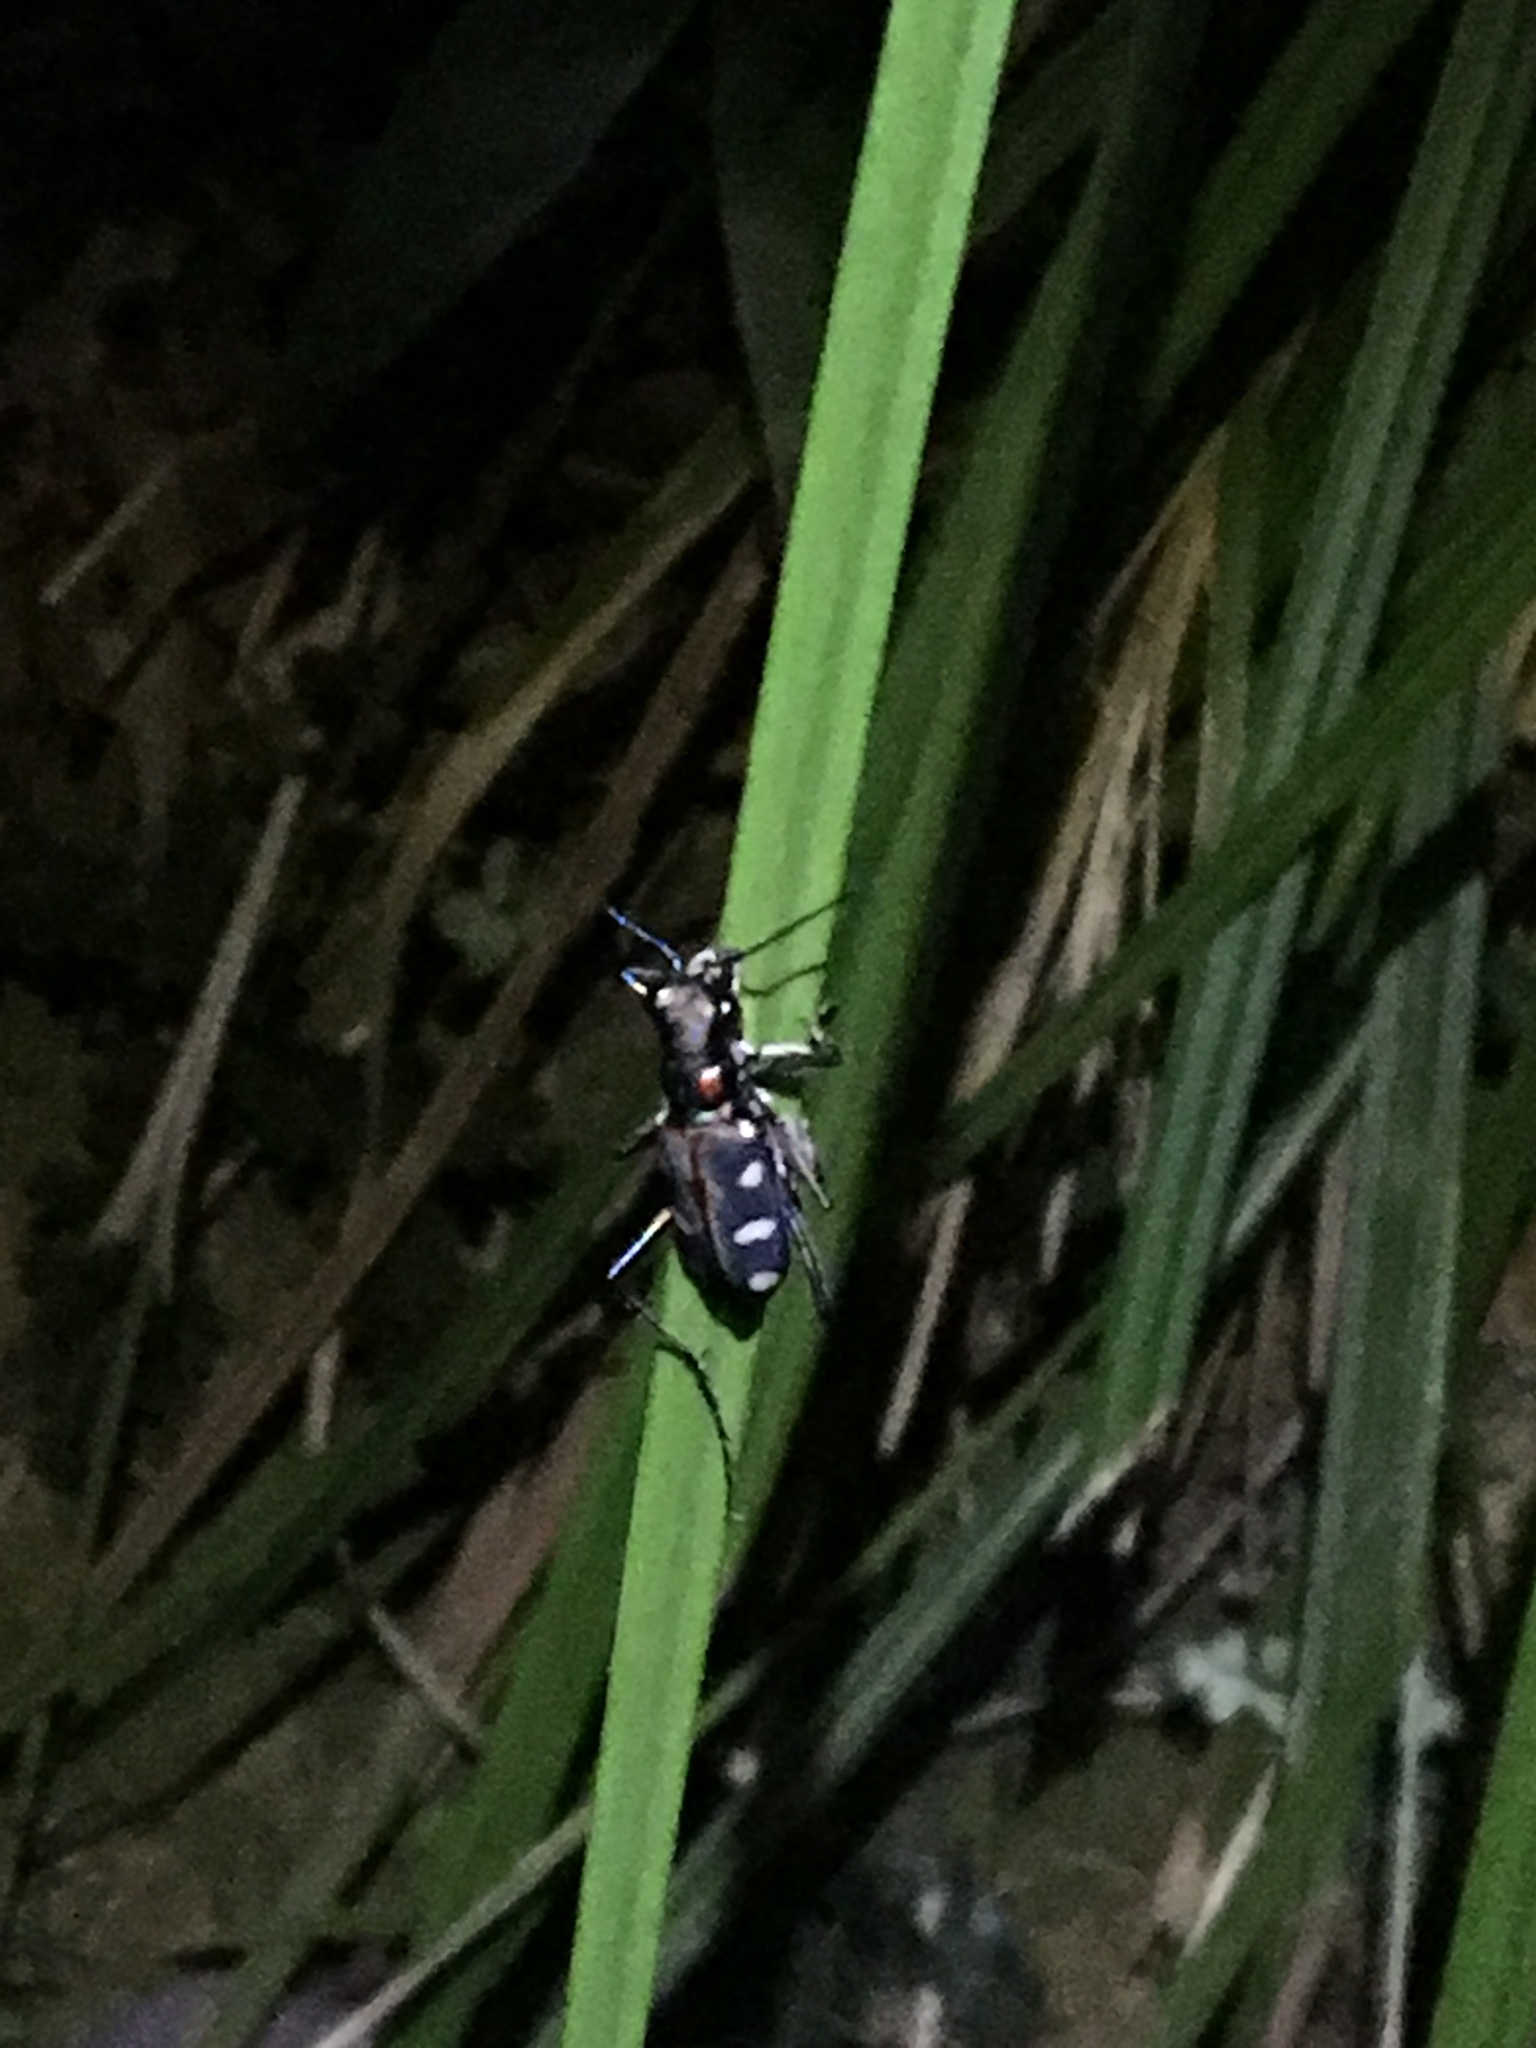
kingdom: Animalia
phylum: Arthropoda
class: Insecta
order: Coleoptera
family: Carabidae
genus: Cicindela
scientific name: Cicindela juxtata
